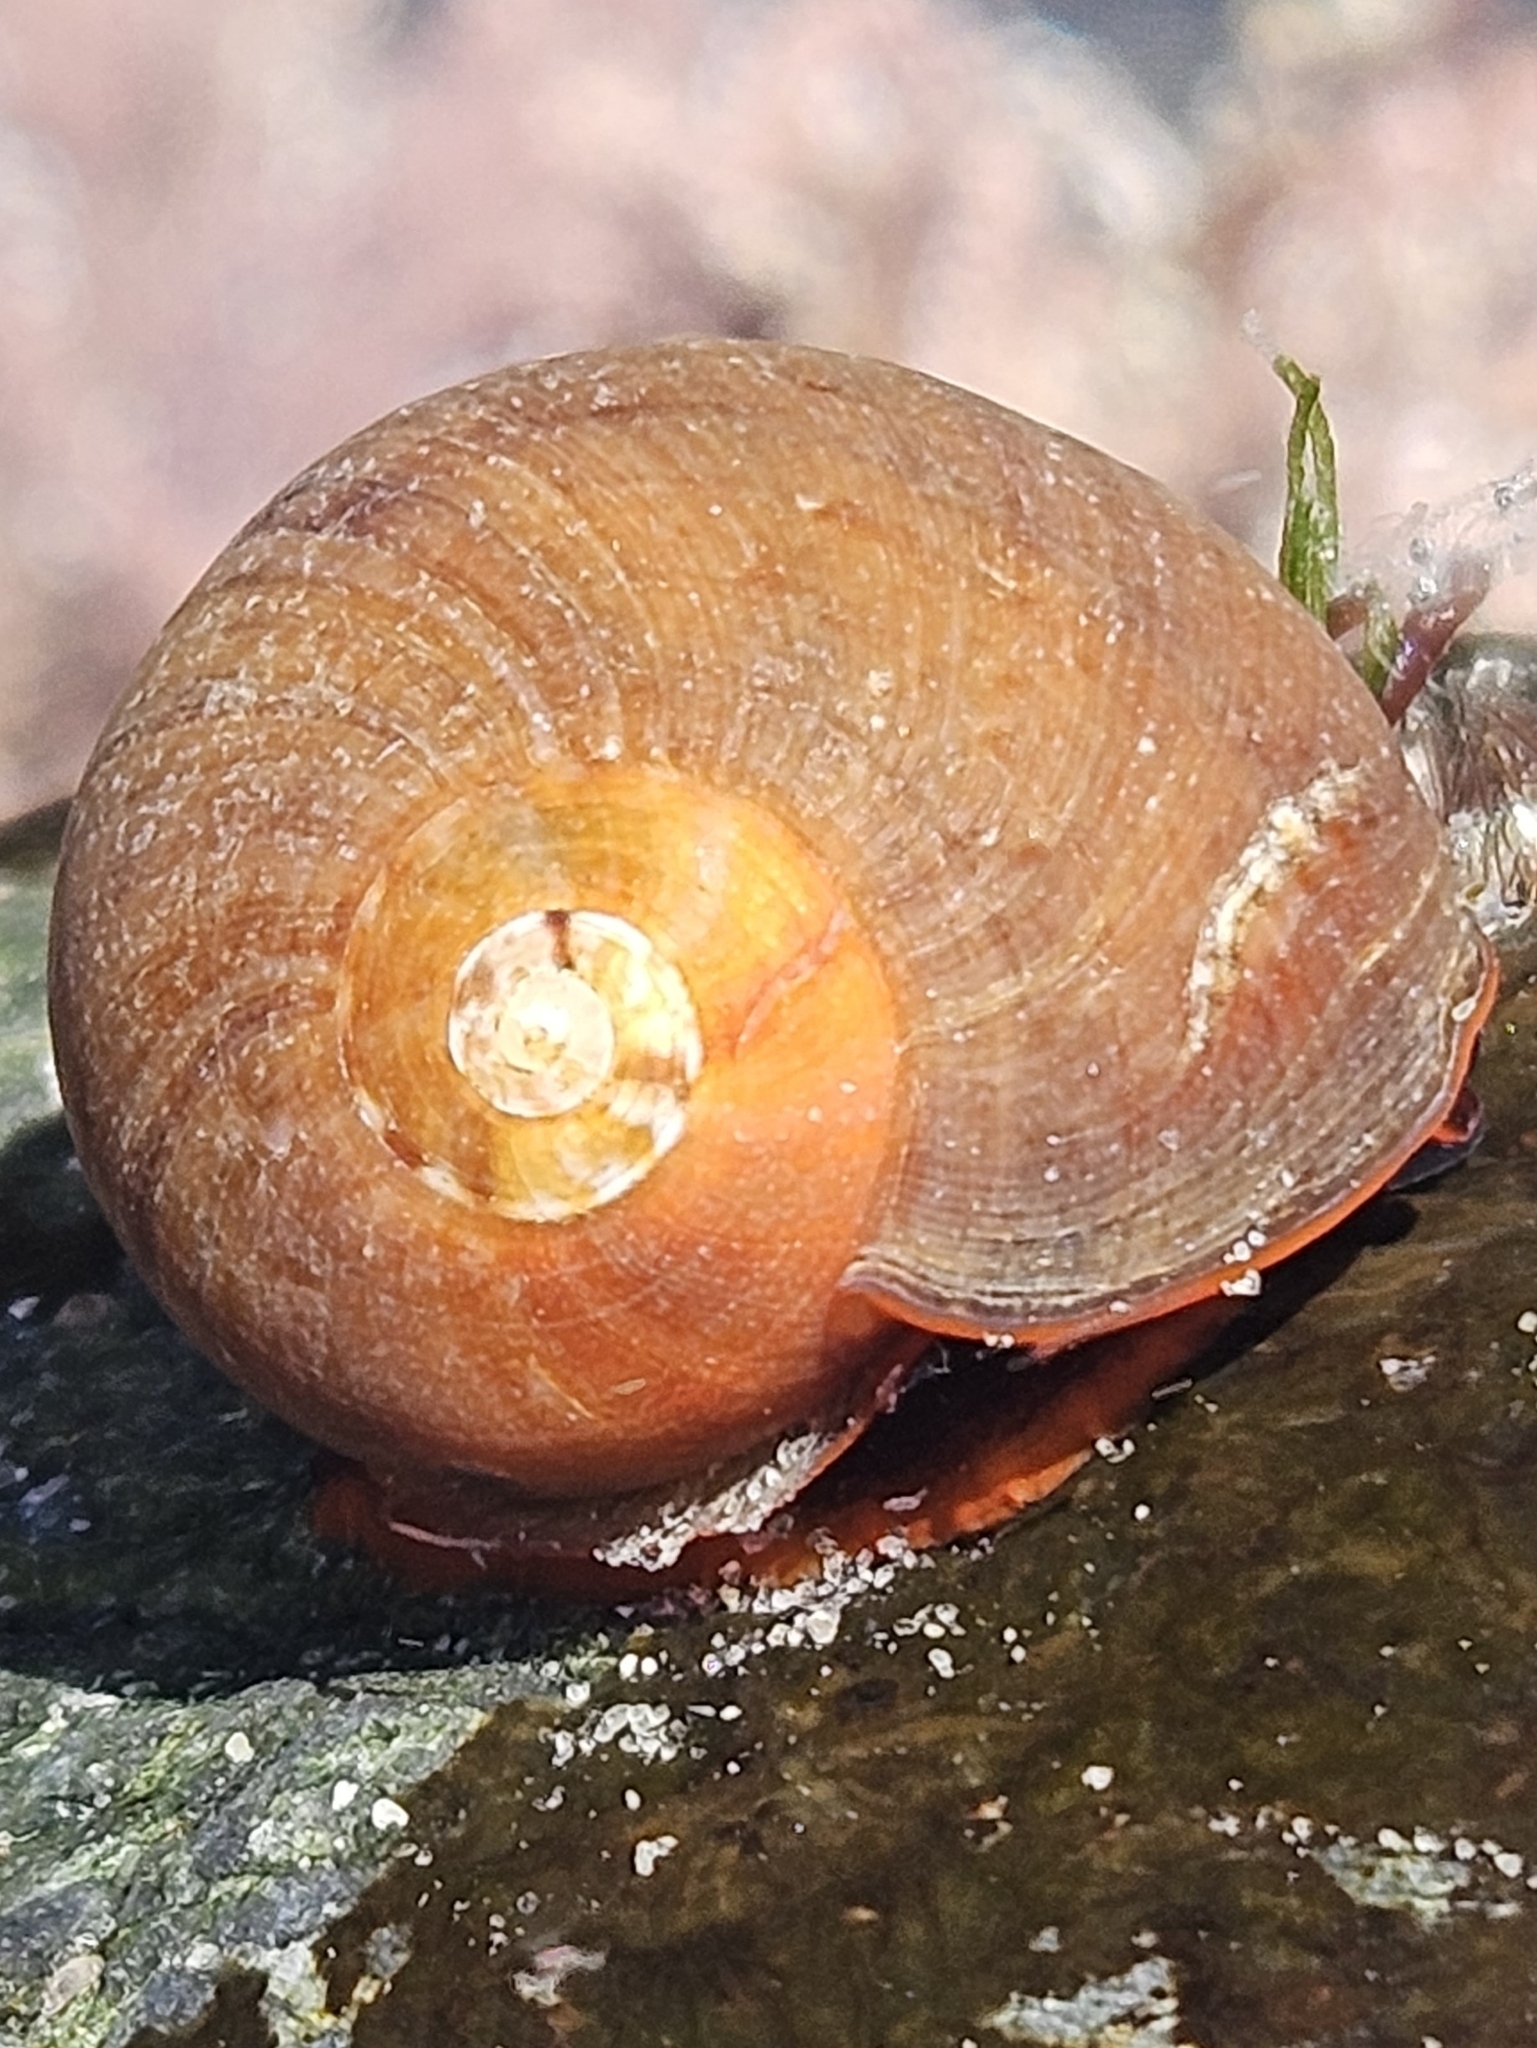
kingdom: Animalia
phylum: Mollusca
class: Gastropoda
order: Trochida
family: Tegulidae
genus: Norrisia
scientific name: Norrisia norrisii
